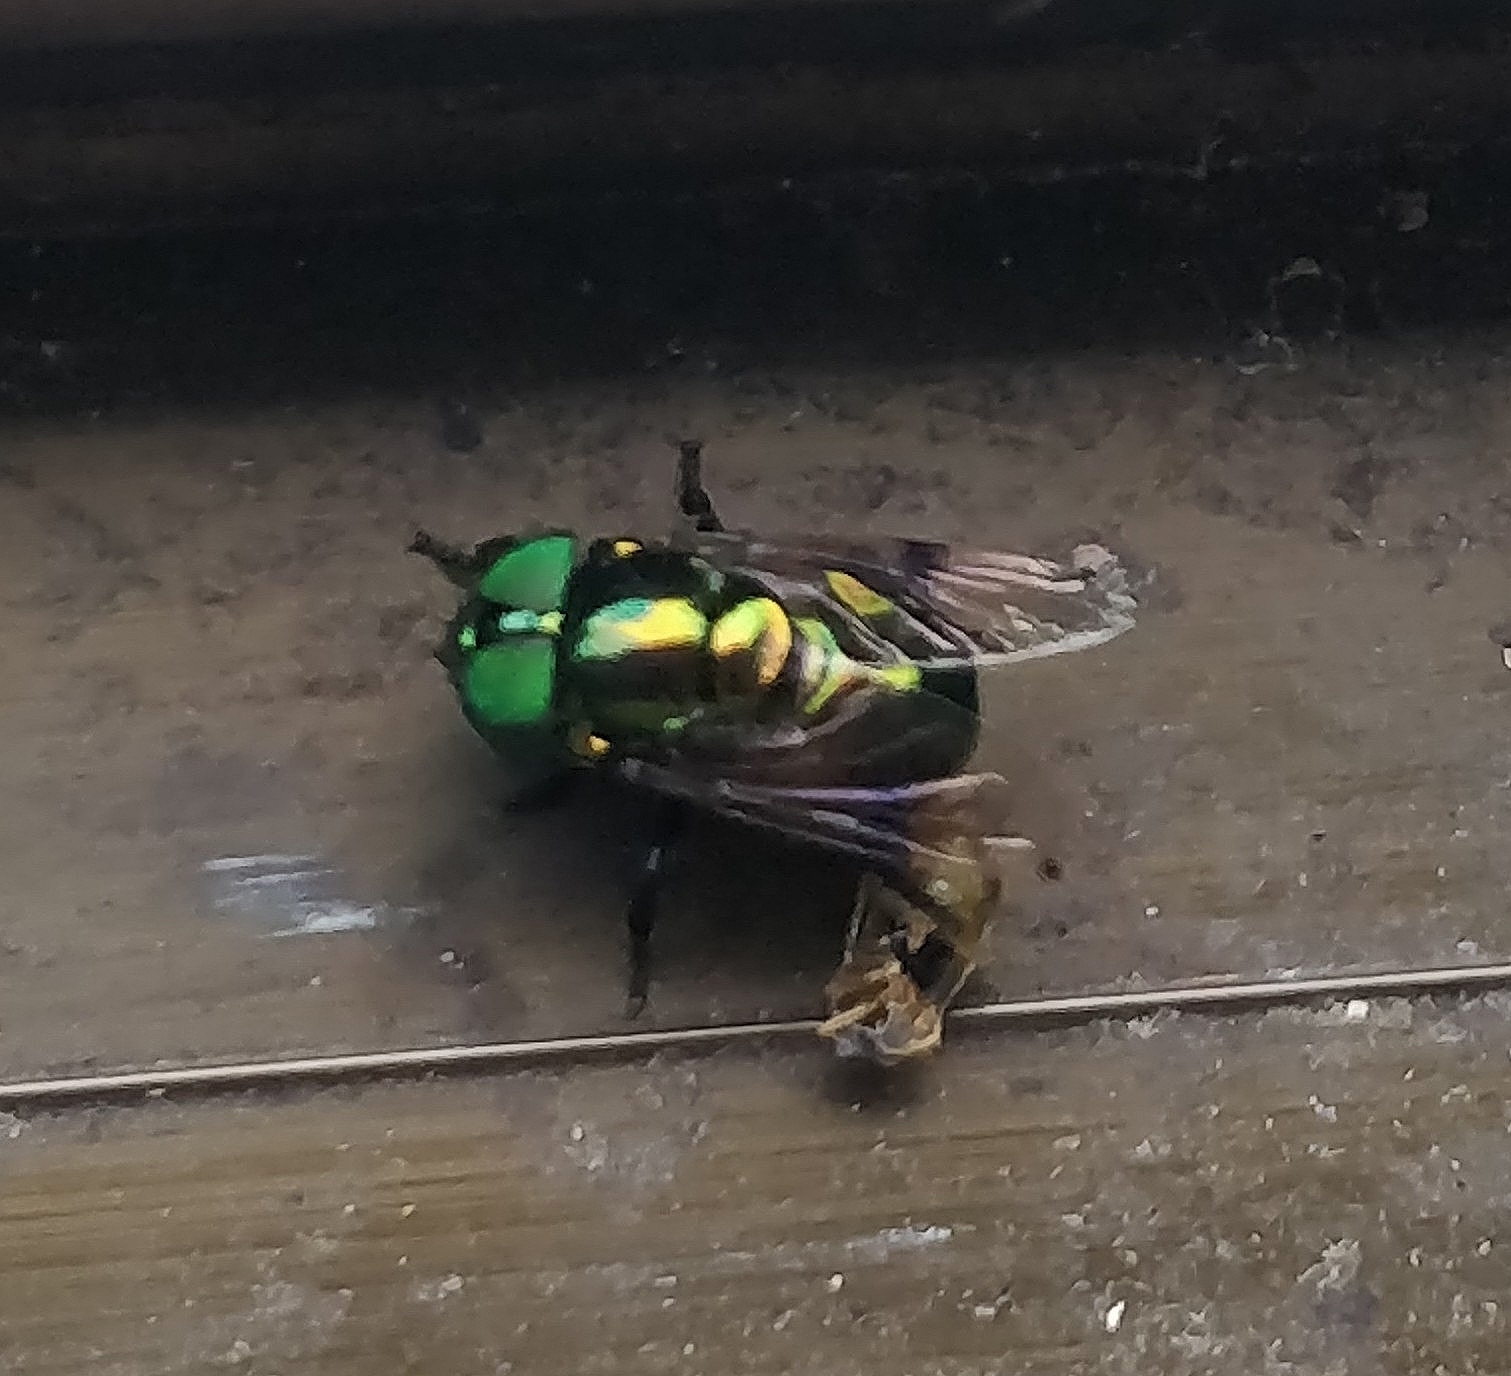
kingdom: Animalia
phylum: Arthropoda
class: Insecta
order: Diptera
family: Syrphidae
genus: Ornidia
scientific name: Ornidia obesa
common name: Syrphid fly
